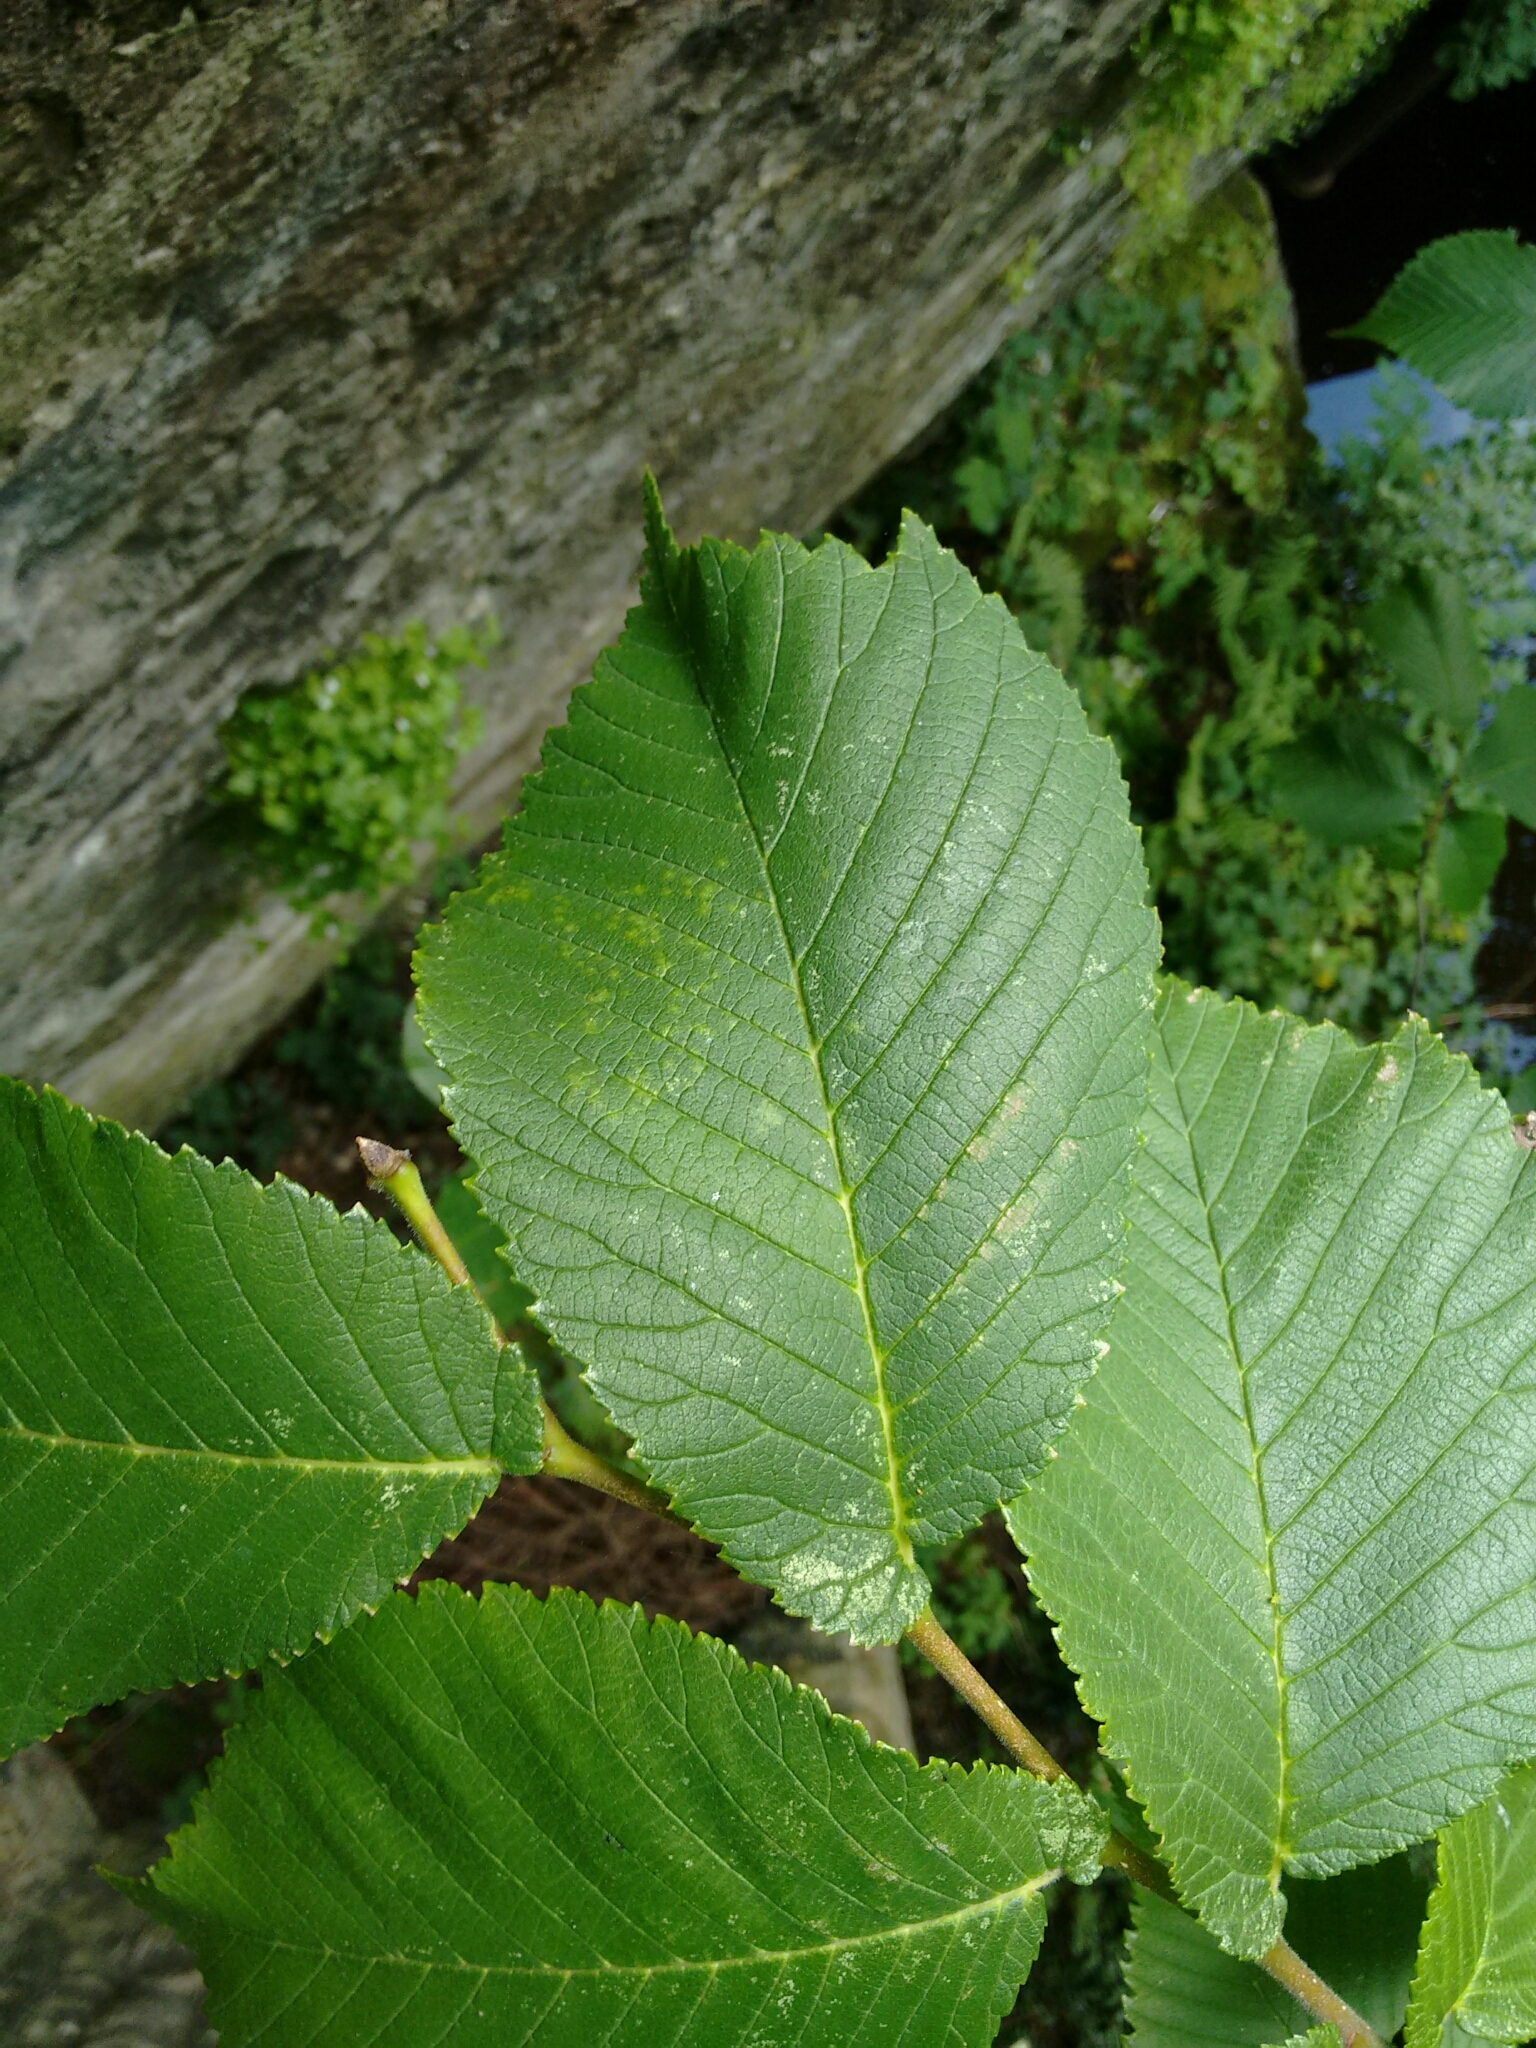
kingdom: Plantae
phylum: Tracheophyta
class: Magnoliopsida
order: Rosales
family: Ulmaceae
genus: Ulmus
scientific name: Ulmus glabra
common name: Wych elm
